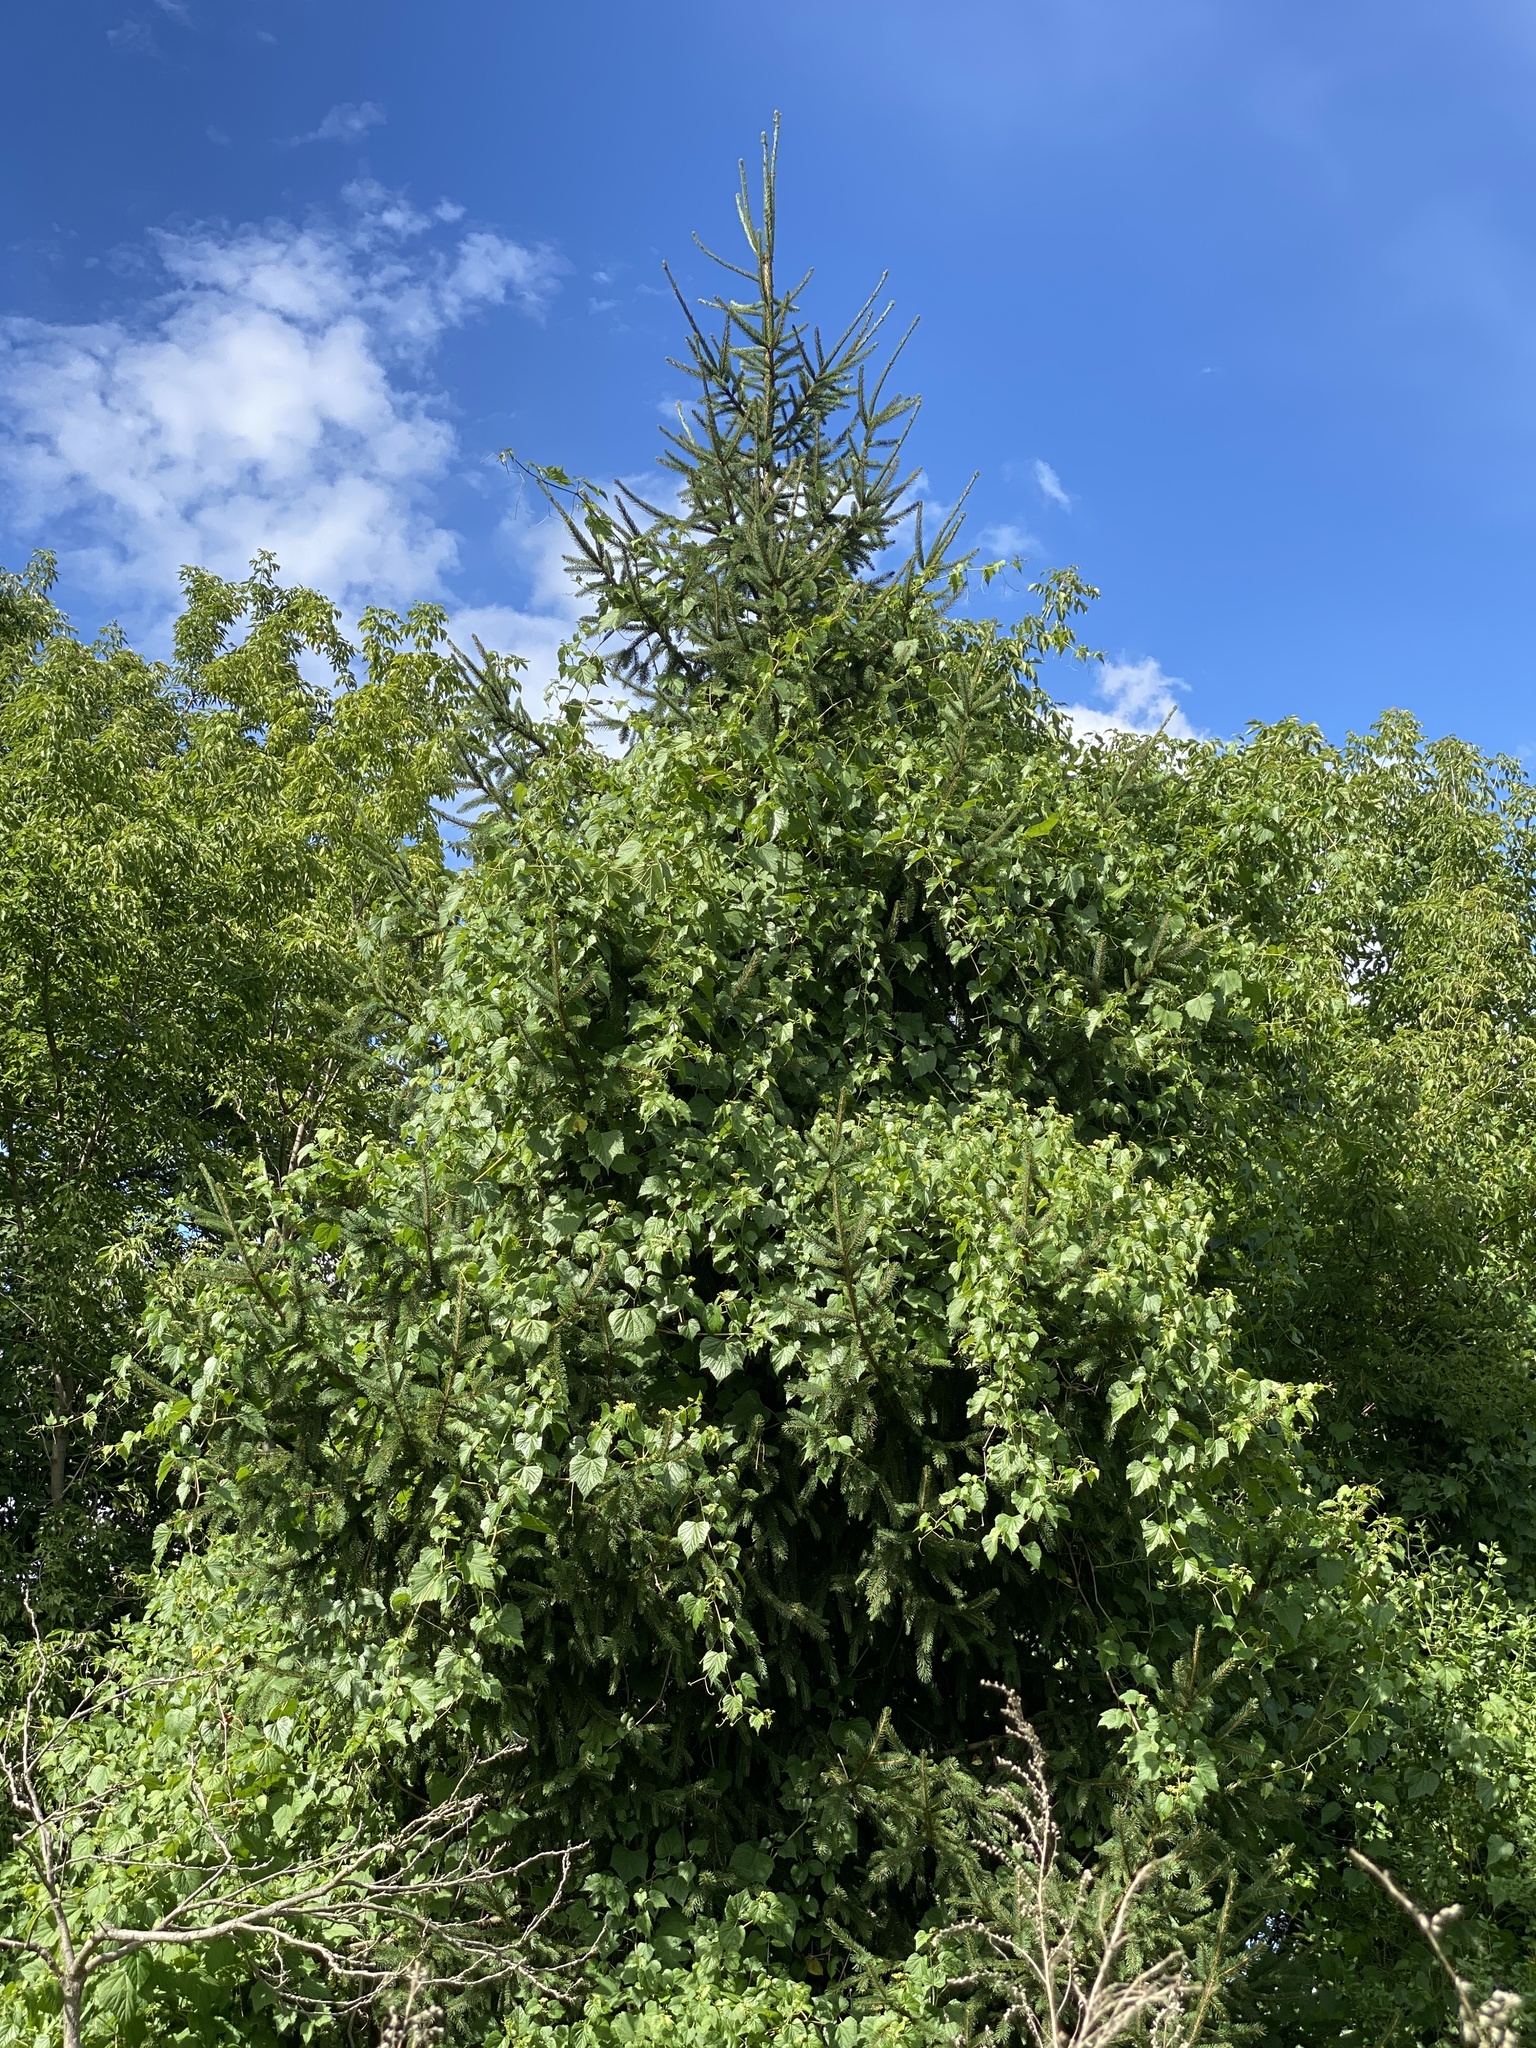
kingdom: Plantae
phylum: Tracheophyta
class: Magnoliopsida
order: Vitales
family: Vitaceae
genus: Ampelopsis
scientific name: Ampelopsis glandulosa
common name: Amur peppervine
